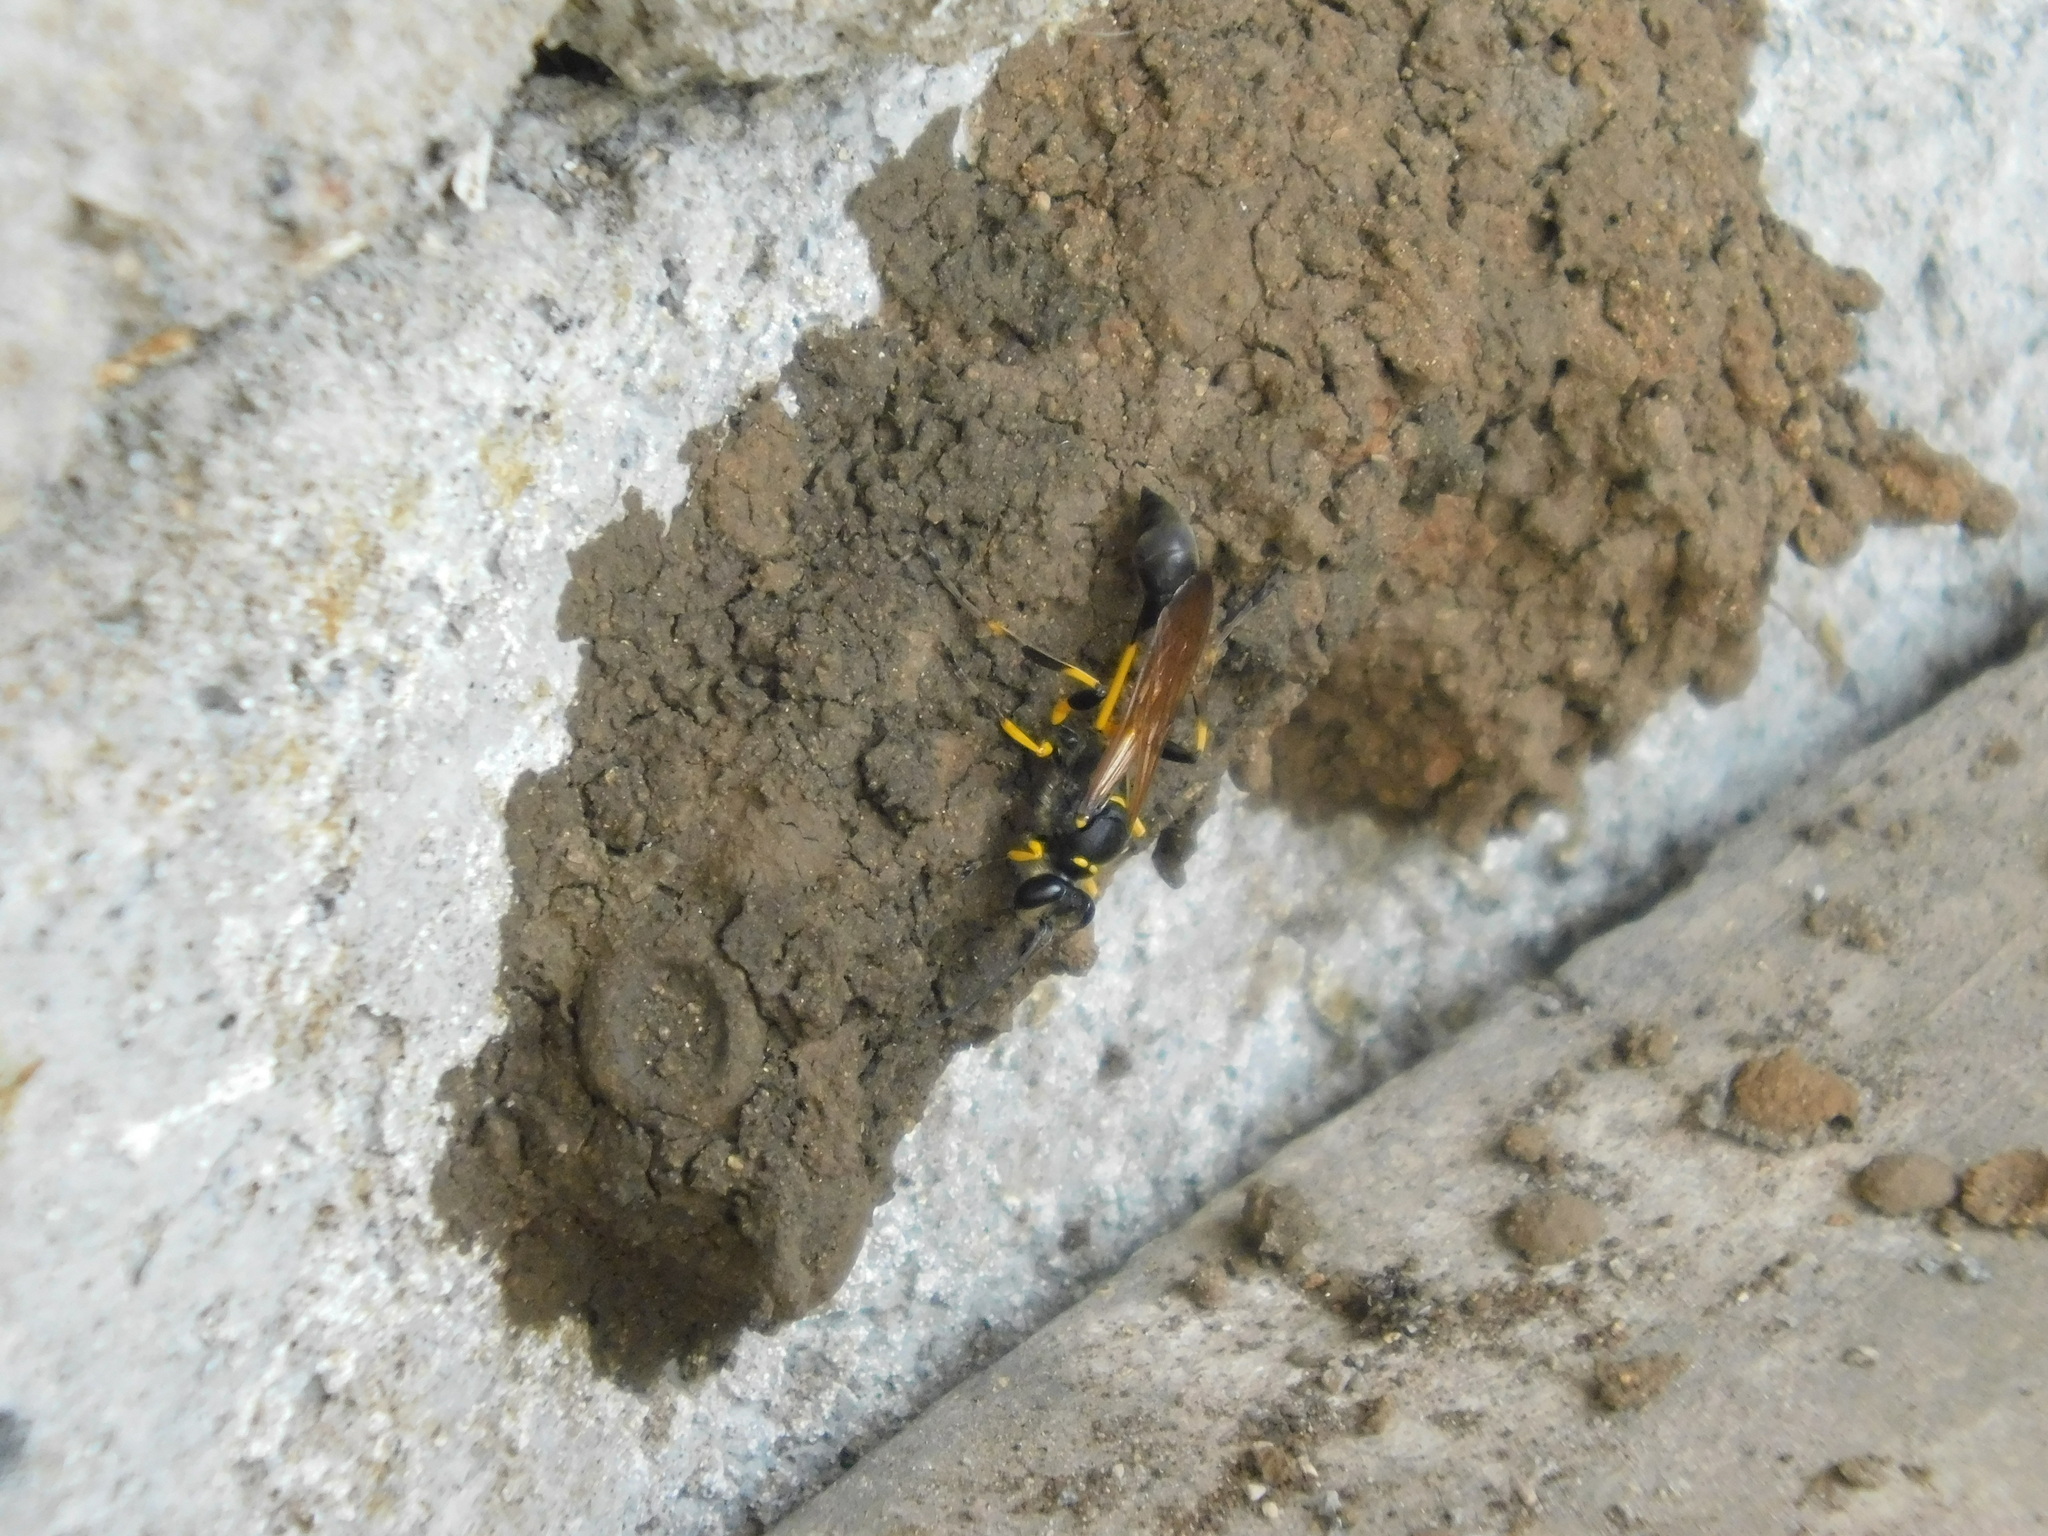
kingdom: Animalia
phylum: Arthropoda
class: Insecta
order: Hymenoptera
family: Sphecidae
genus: Sceliphron
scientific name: Sceliphron madraspatanum
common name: Mud dauber
